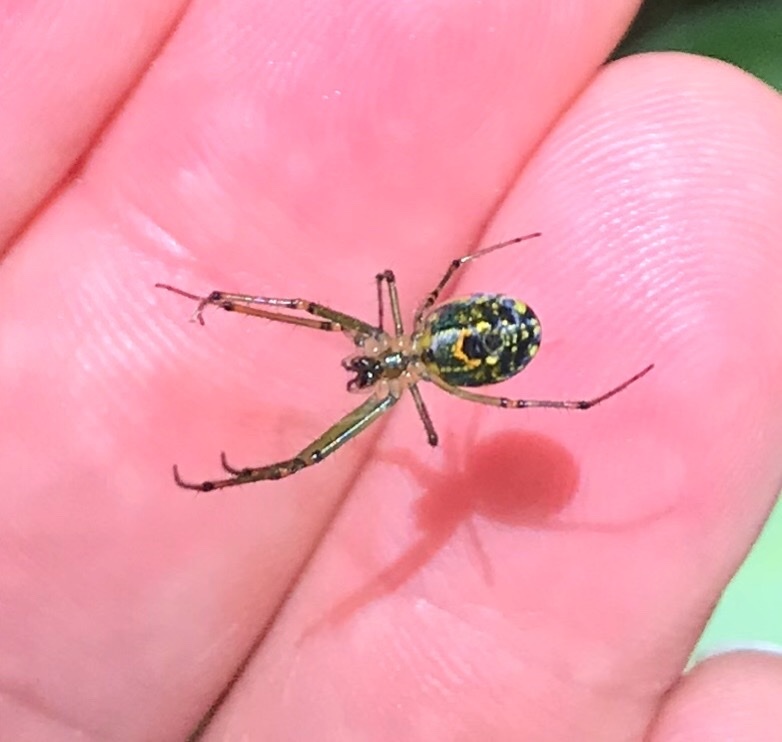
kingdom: Animalia
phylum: Arthropoda
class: Arachnida
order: Araneae
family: Tetragnathidae
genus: Leucauge
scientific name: Leucauge venusta
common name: Longjawed orb weavers
